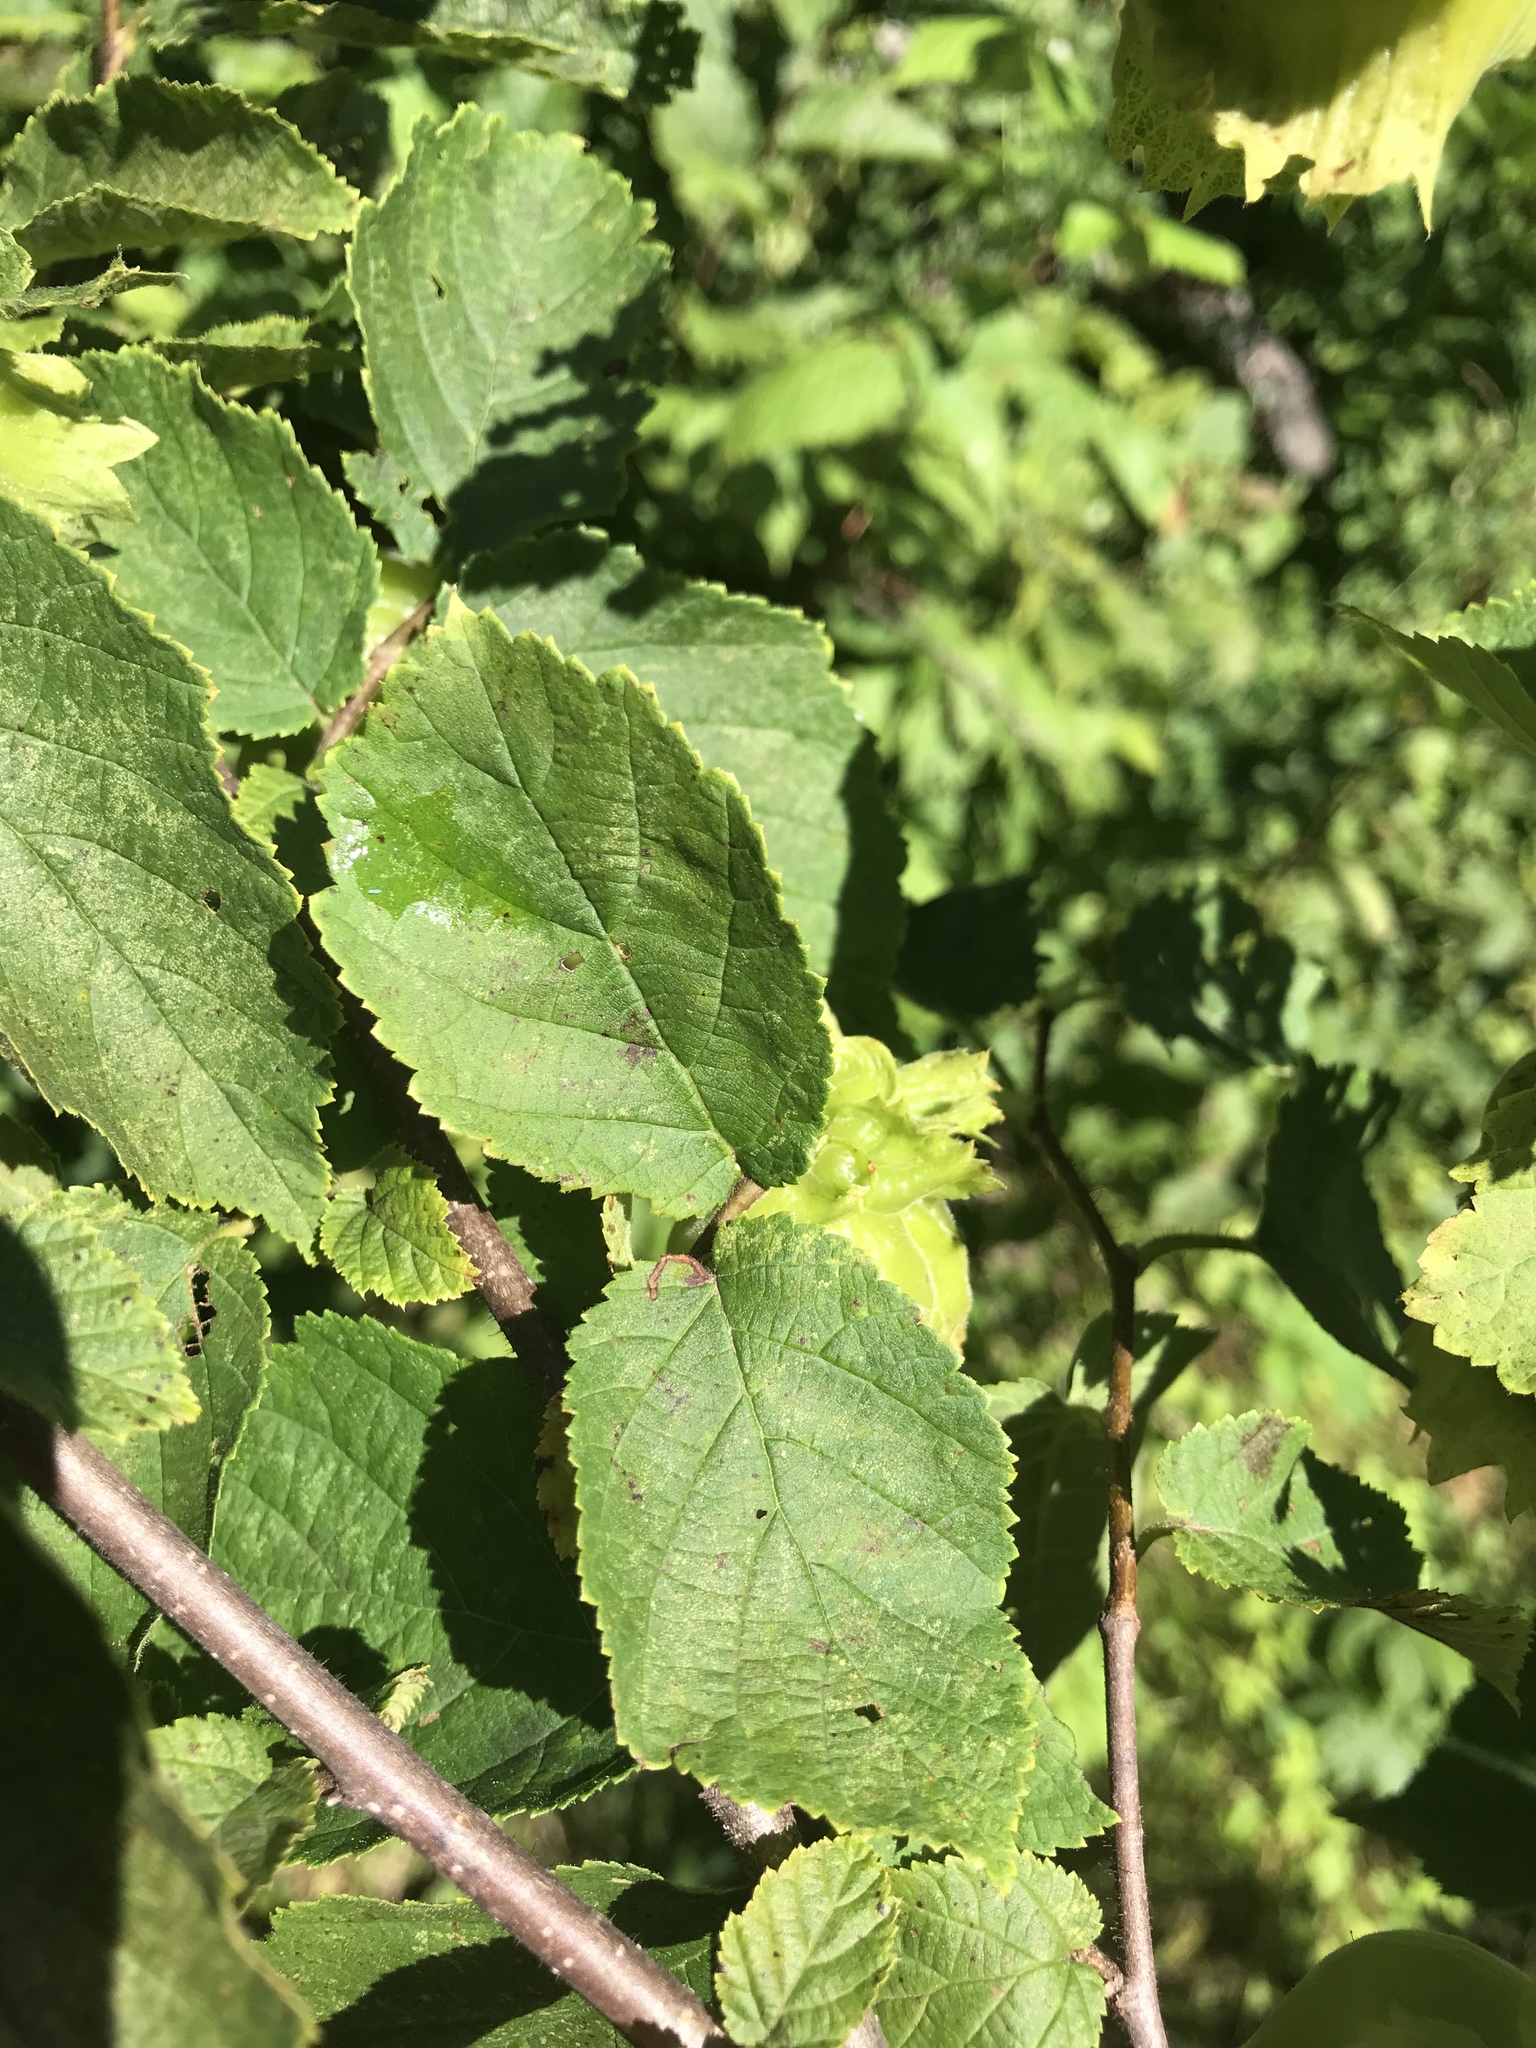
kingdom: Plantae
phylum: Tracheophyta
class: Magnoliopsida
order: Fagales
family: Betulaceae
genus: Corylus
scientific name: Corylus americana
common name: American hazel
